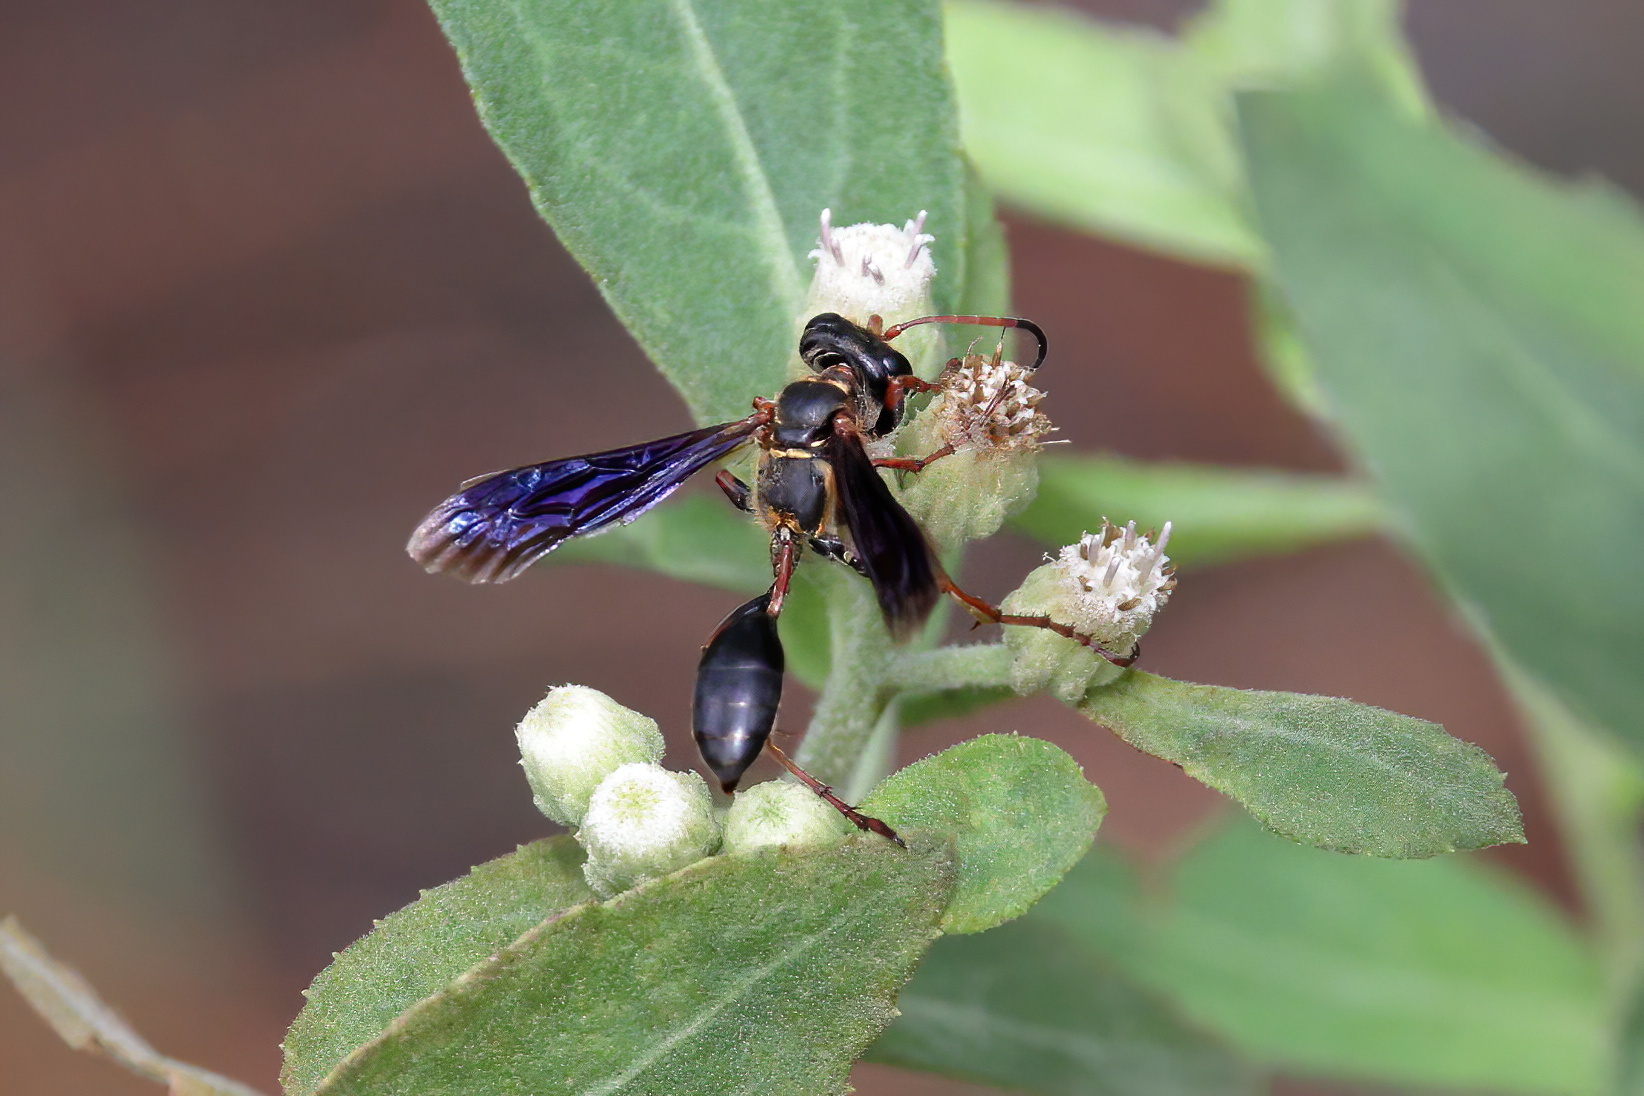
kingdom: Animalia
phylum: Arthropoda
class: Insecta
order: Hymenoptera
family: Sphecidae
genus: Isodontia
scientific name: Isodontia exornata
